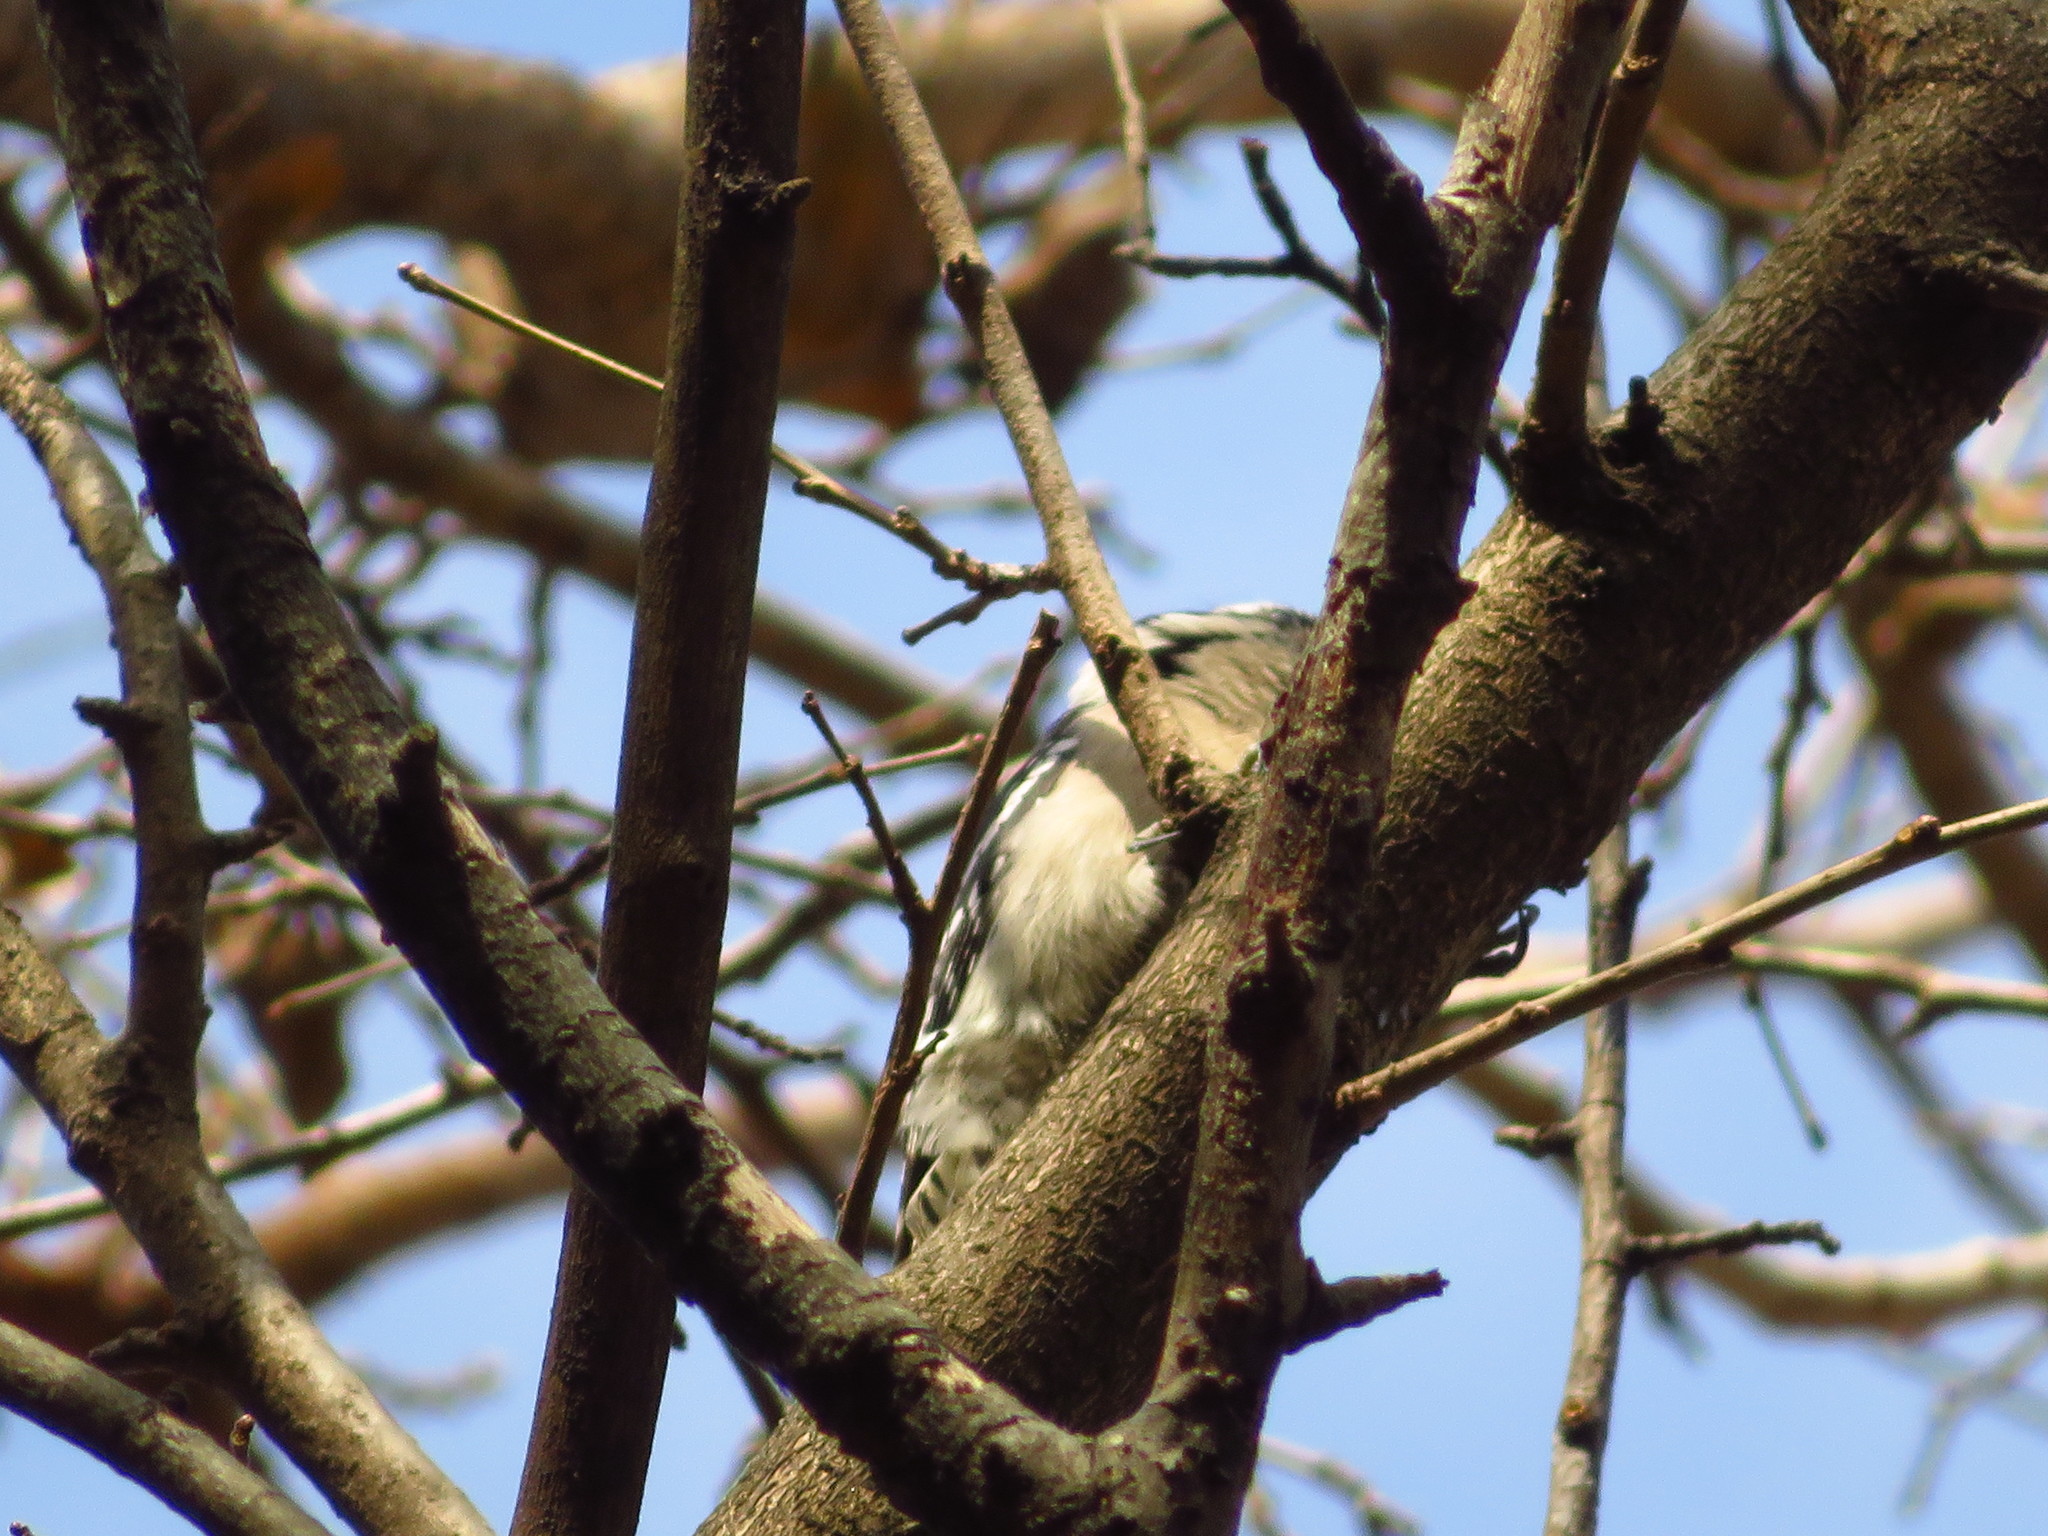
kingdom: Animalia
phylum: Chordata
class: Aves
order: Piciformes
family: Picidae
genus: Dryobates
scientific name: Dryobates pubescens
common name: Downy woodpecker
